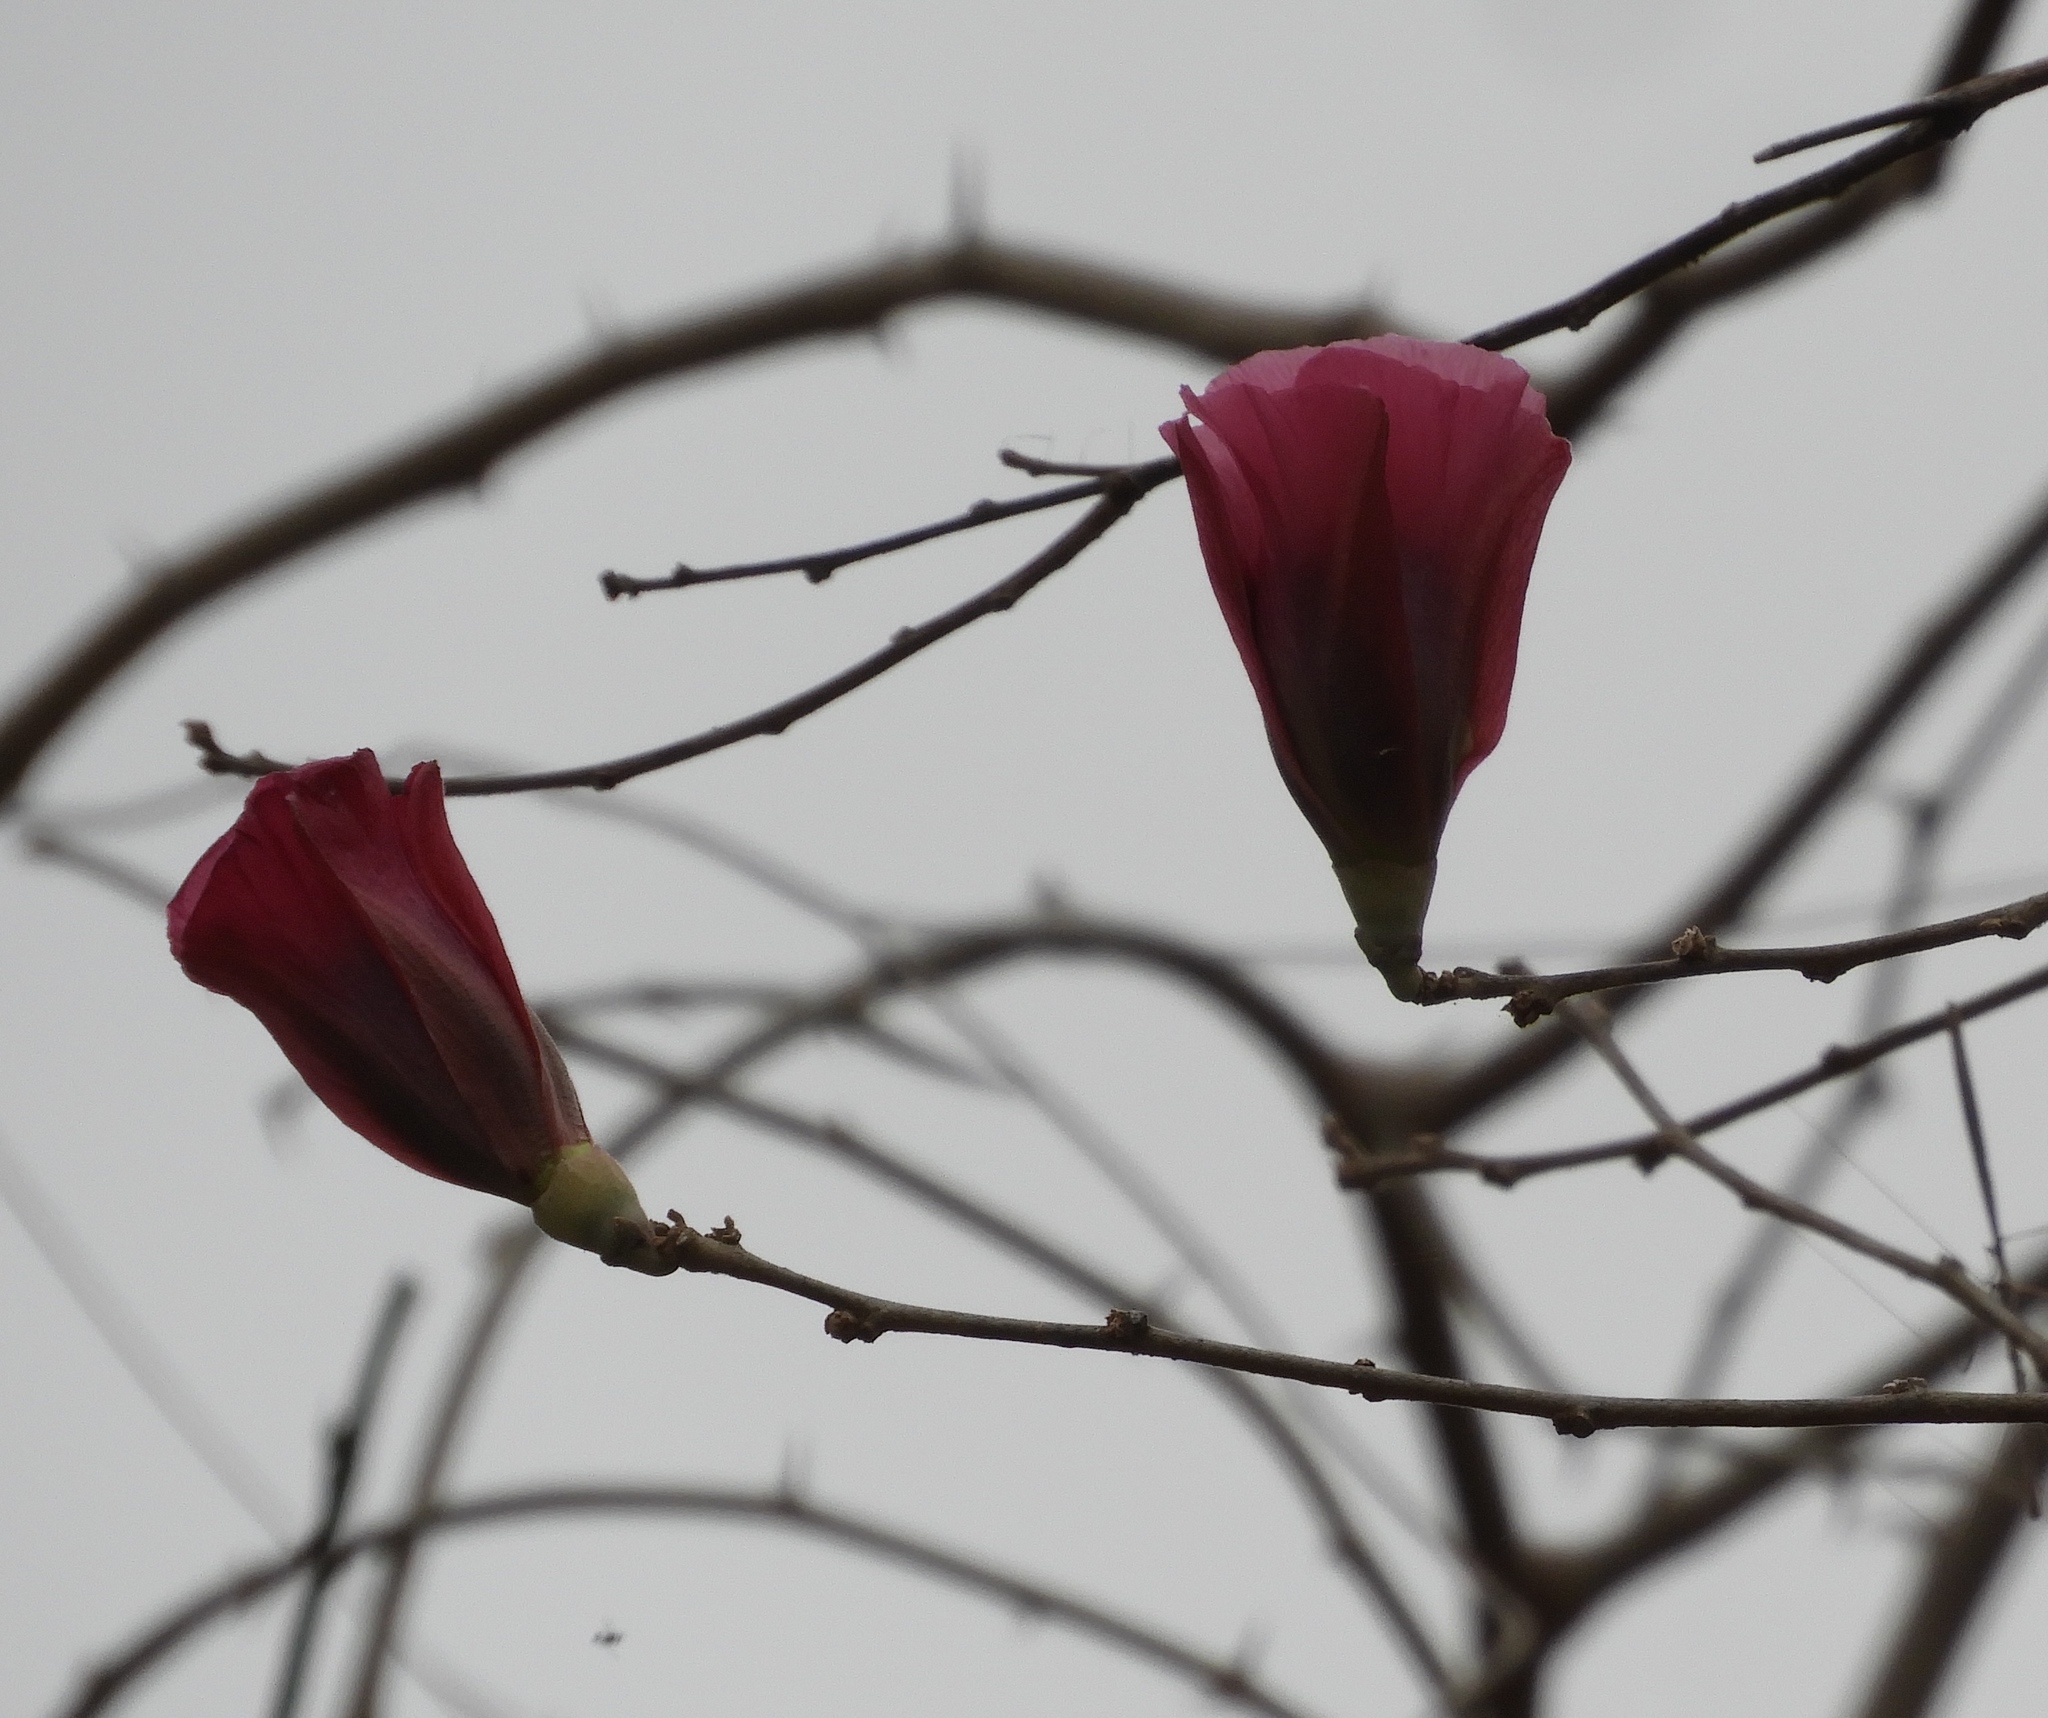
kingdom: Plantae
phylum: Tracheophyta
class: Magnoliopsida
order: Malvales
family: Malvaceae
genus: Gossypium
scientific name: Gossypium aridum
